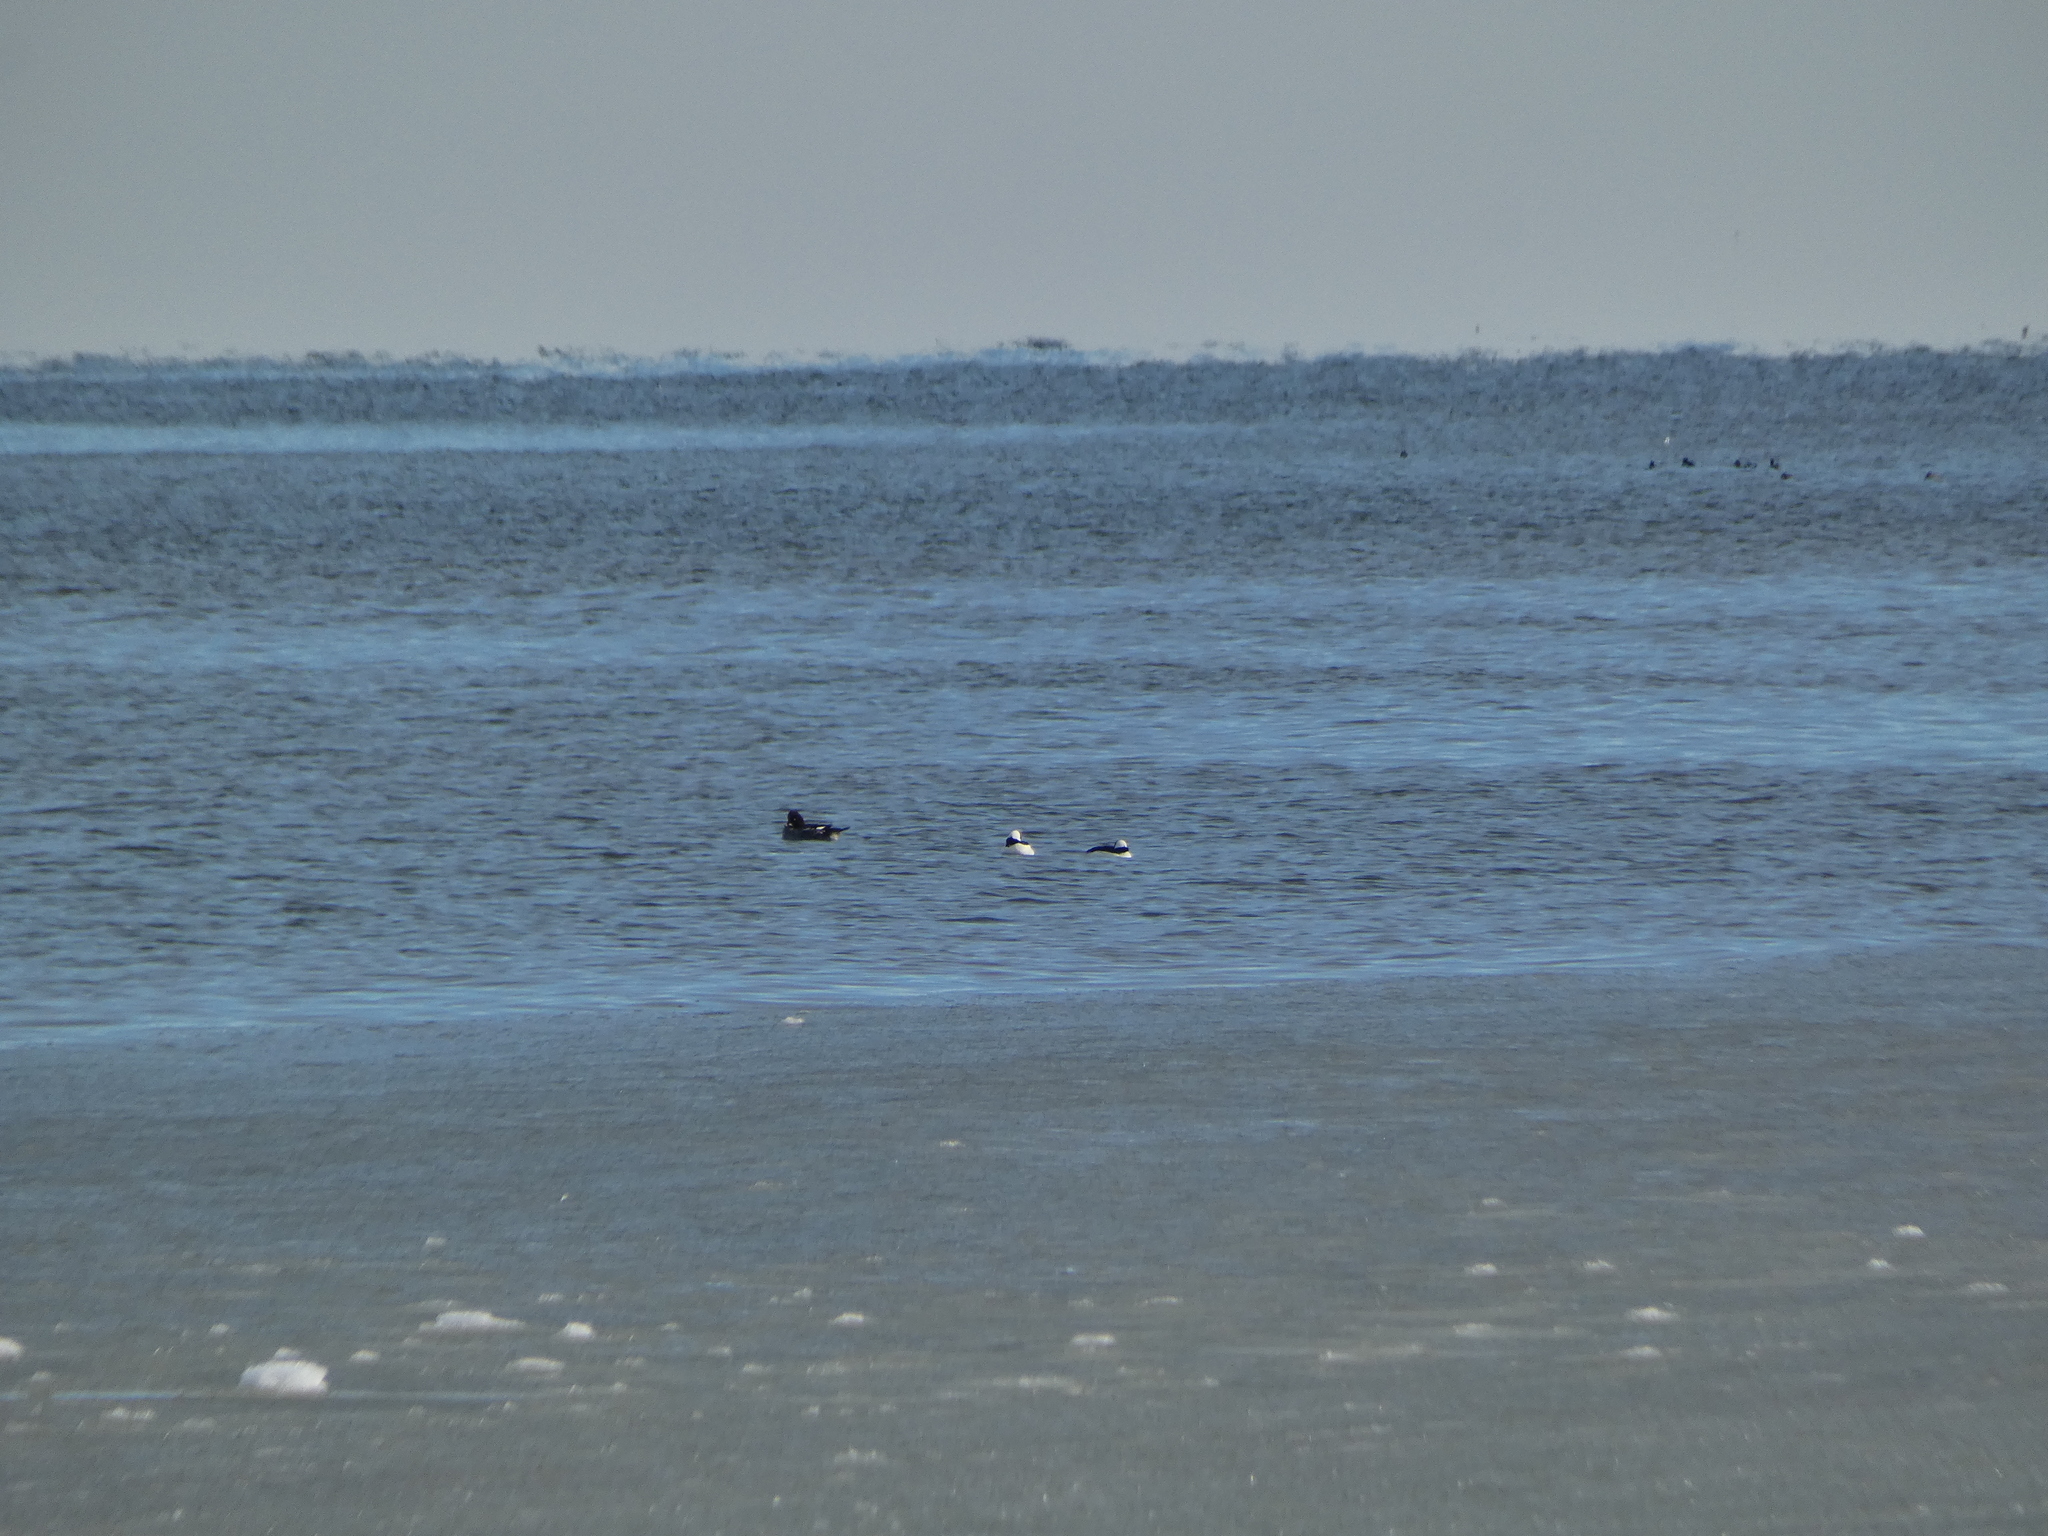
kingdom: Animalia
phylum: Chordata
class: Aves
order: Anseriformes
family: Anatidae
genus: Bucephala
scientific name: Bucephala clangula
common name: Common goldeneye
